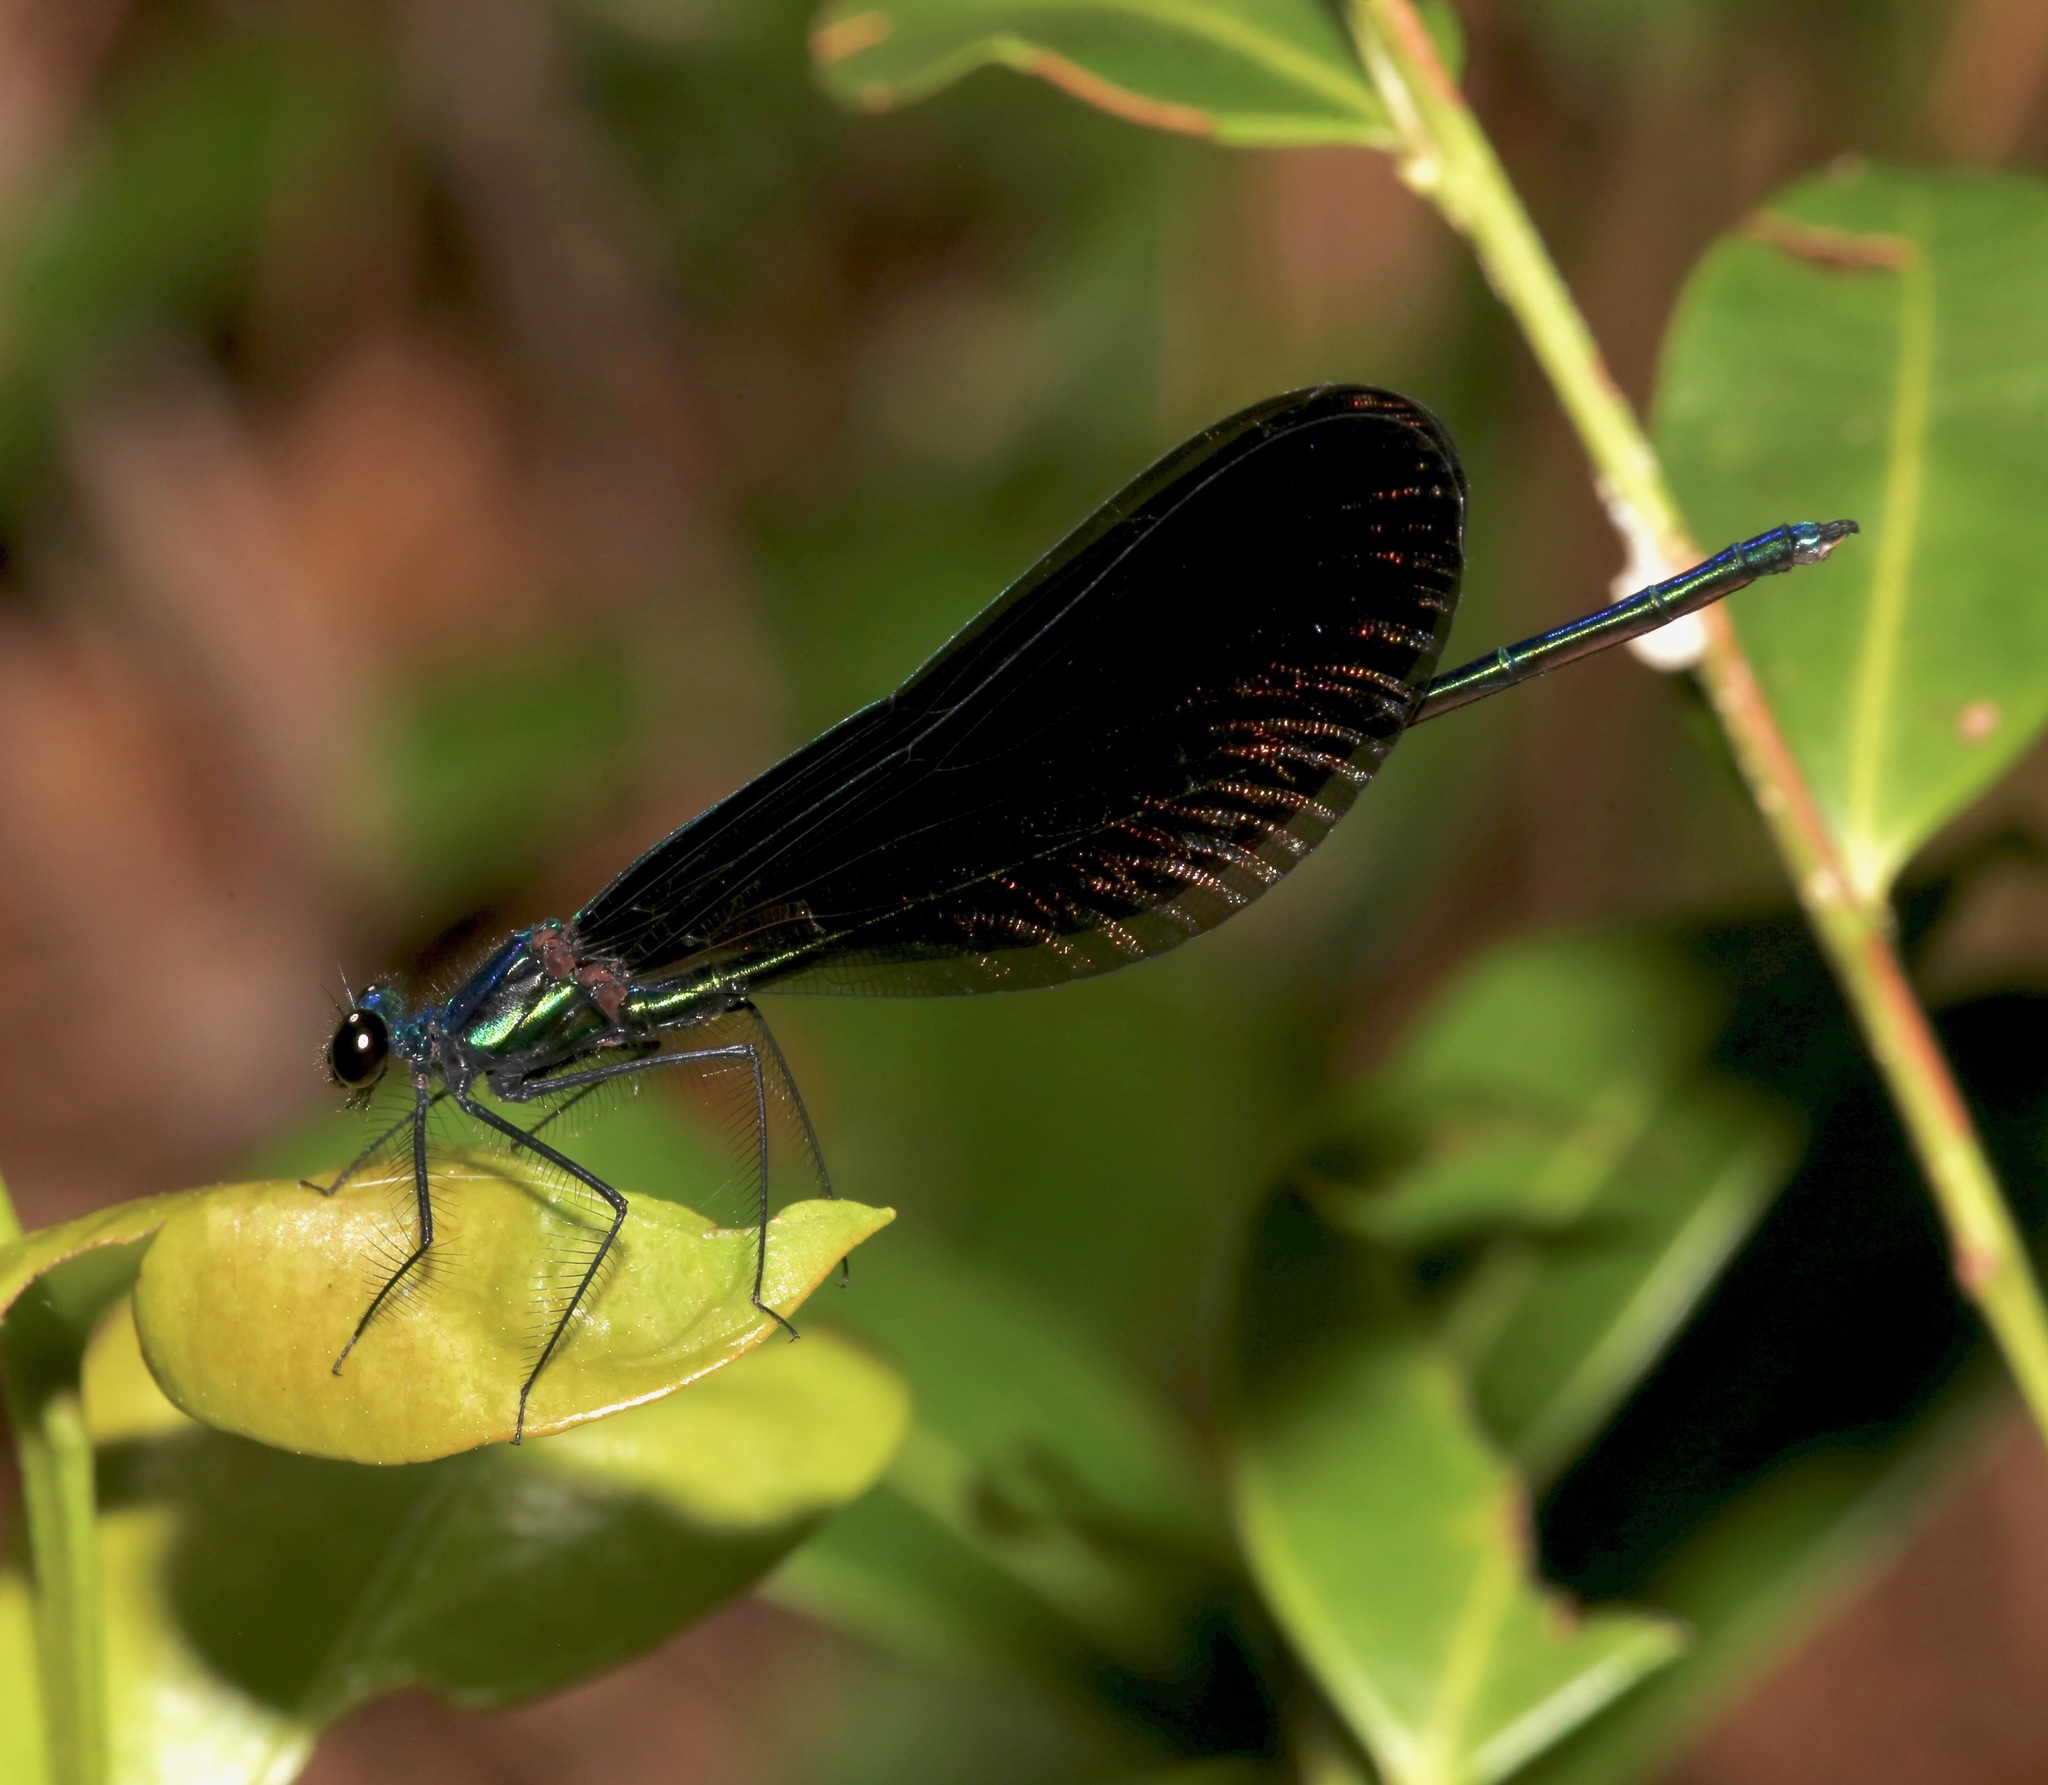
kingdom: Animalia
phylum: Arthropoda
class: Insecta
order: Odonata
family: Calopterygidae
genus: Calopteryx
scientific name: Calopteryx maculata
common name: Ebony jewelwing
